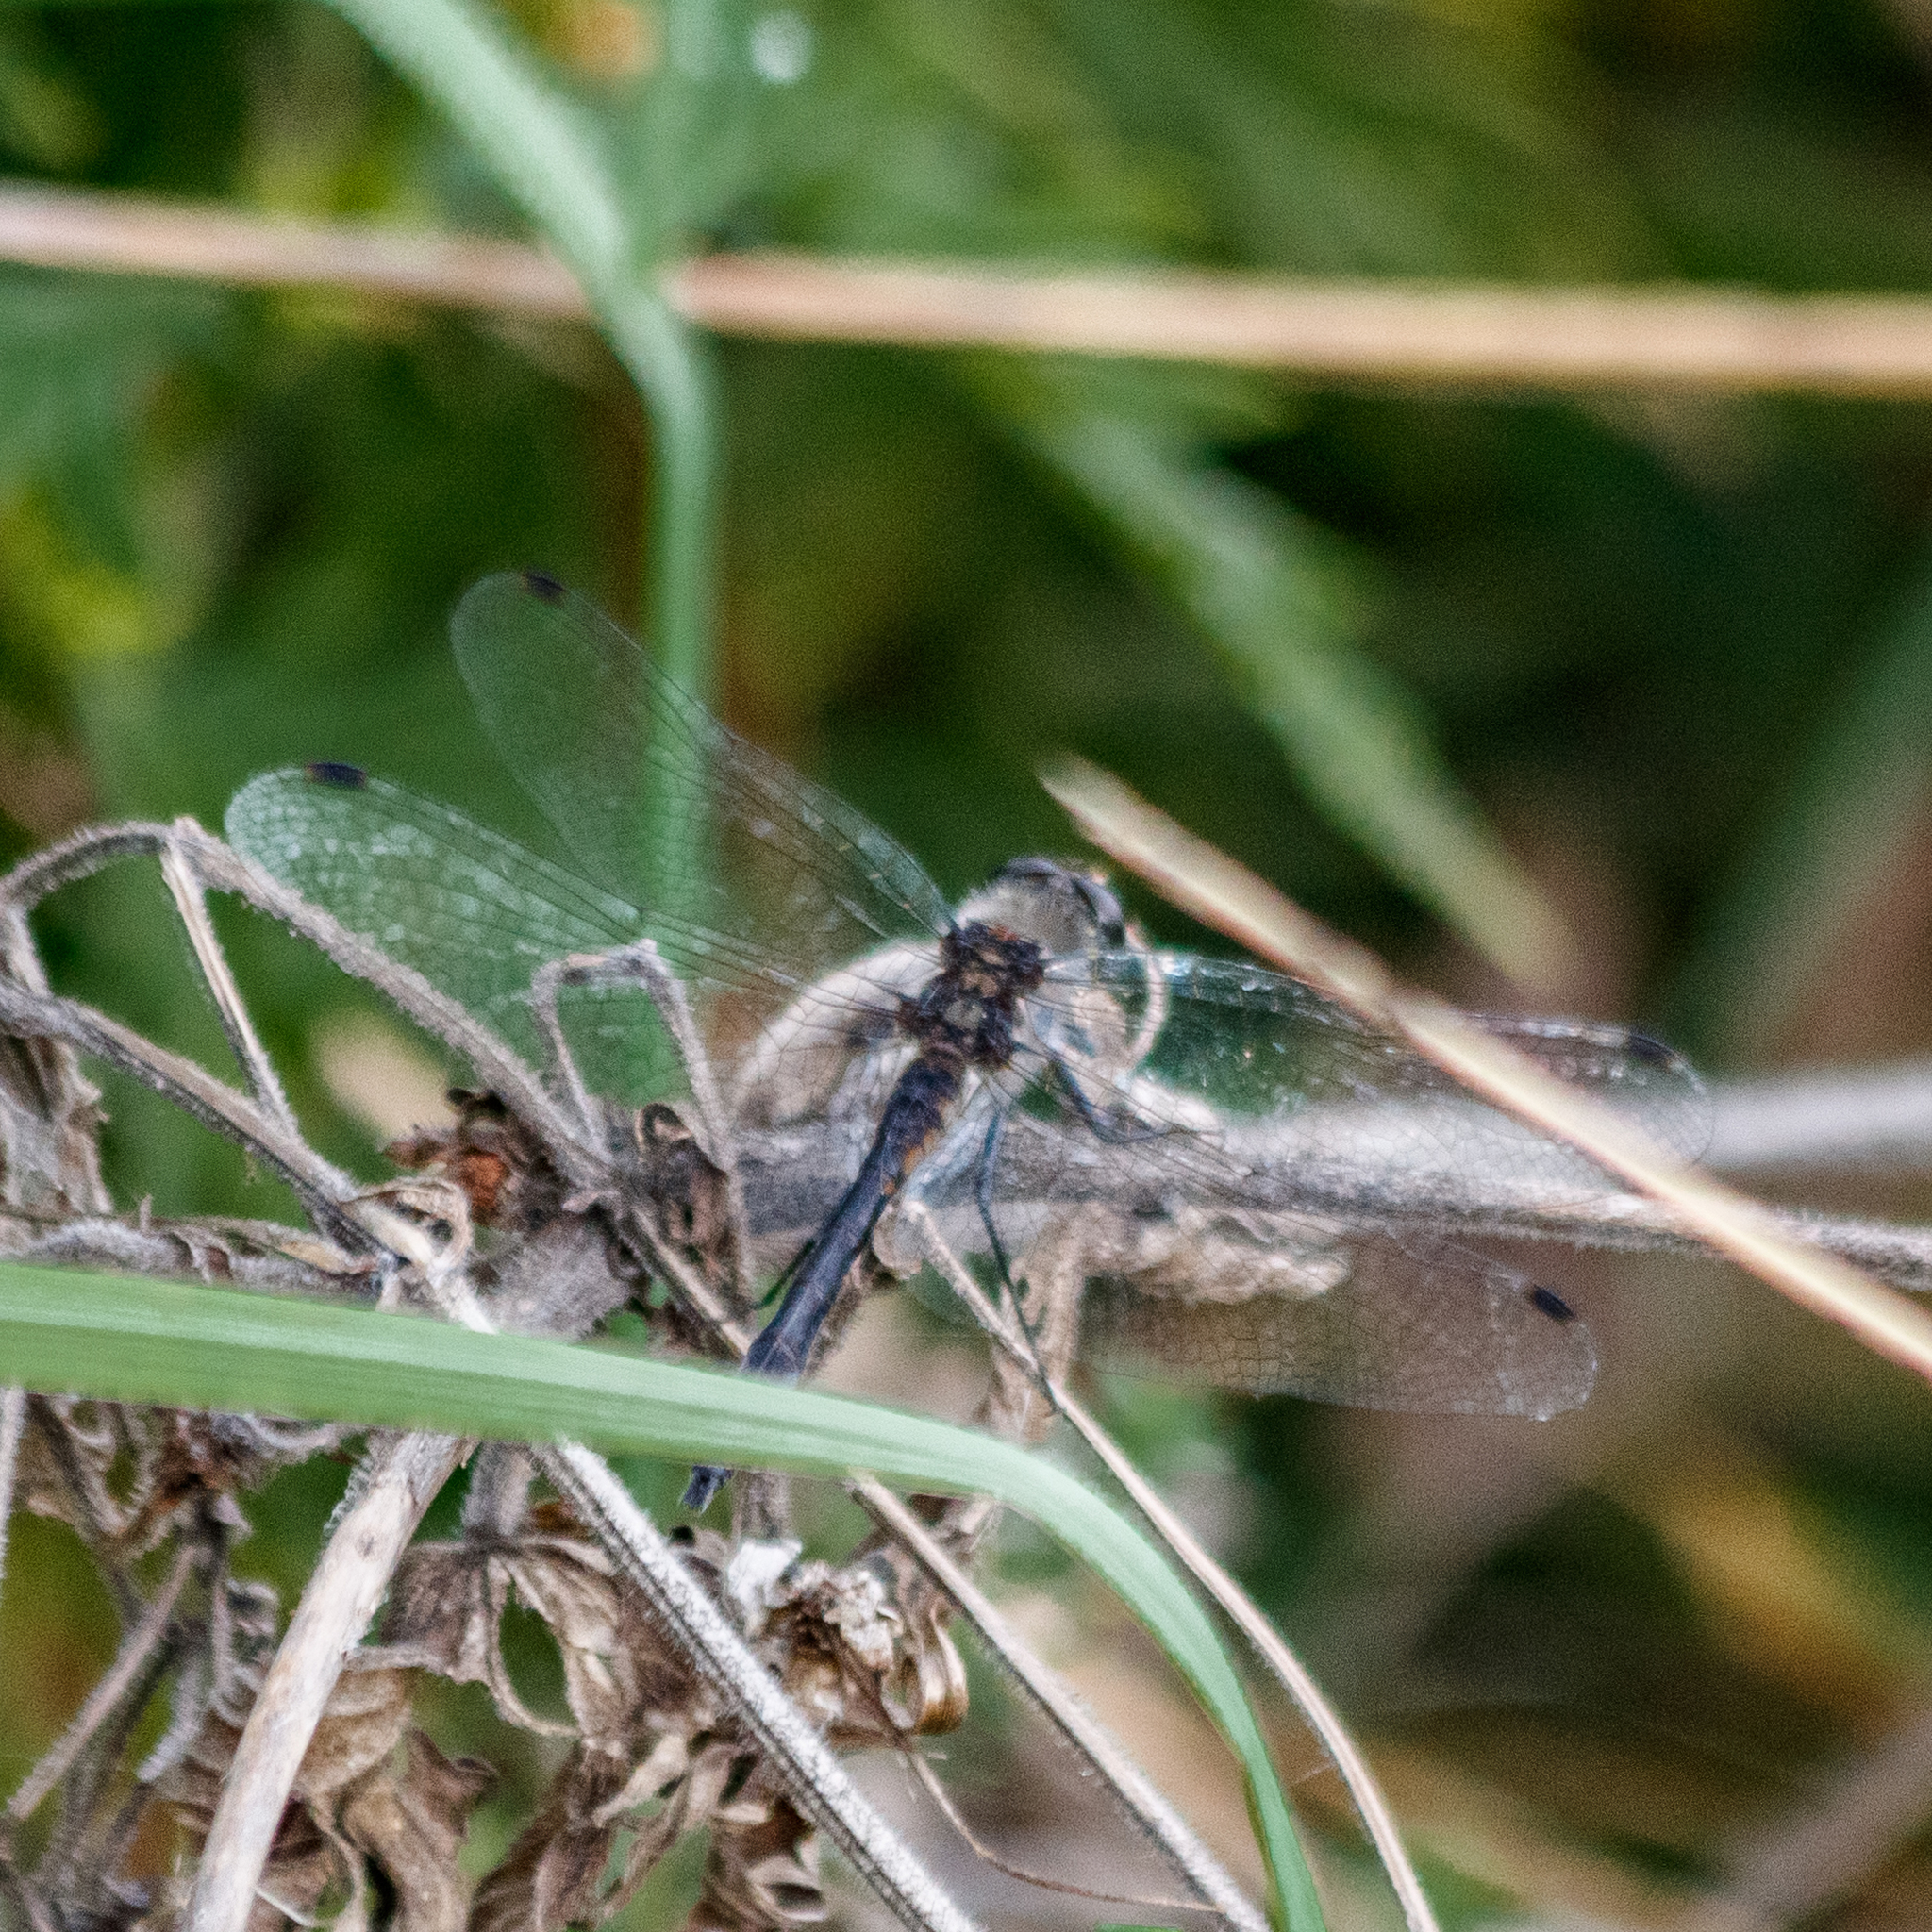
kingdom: Animalia
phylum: Arthropoda
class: Insecta
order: Odonata
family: Libellulidae
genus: Sympetrum
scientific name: Sympetrum danae
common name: Black darter
